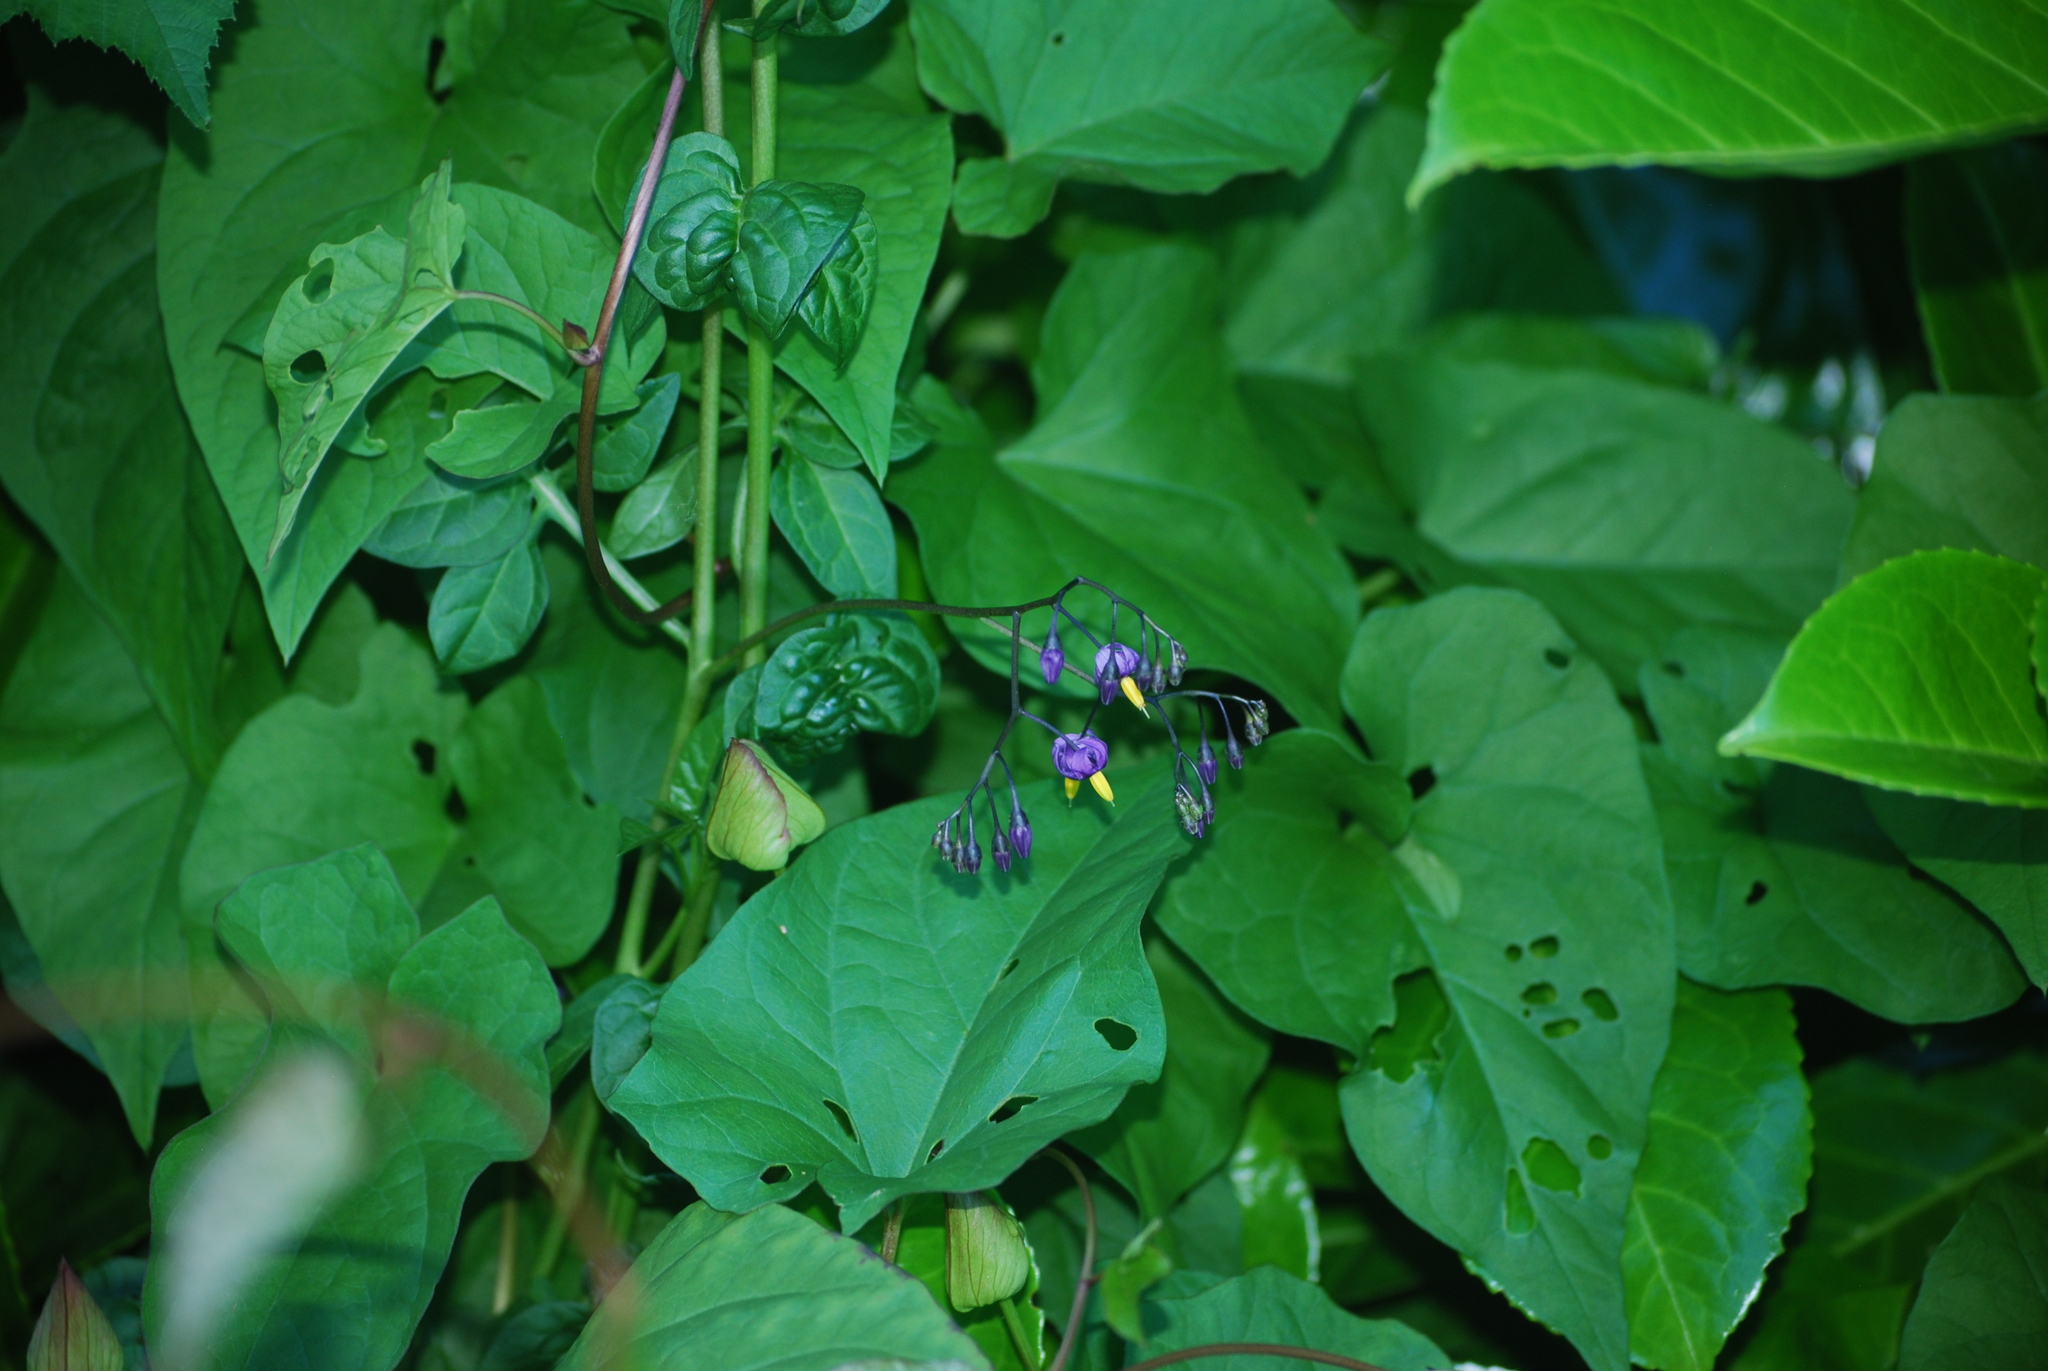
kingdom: Plantae
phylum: Tracheophyta
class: Magnoliopsida
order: Solanales
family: Solanaceae
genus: Solanum
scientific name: Solanum dulcamara
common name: Climbing nightshade
